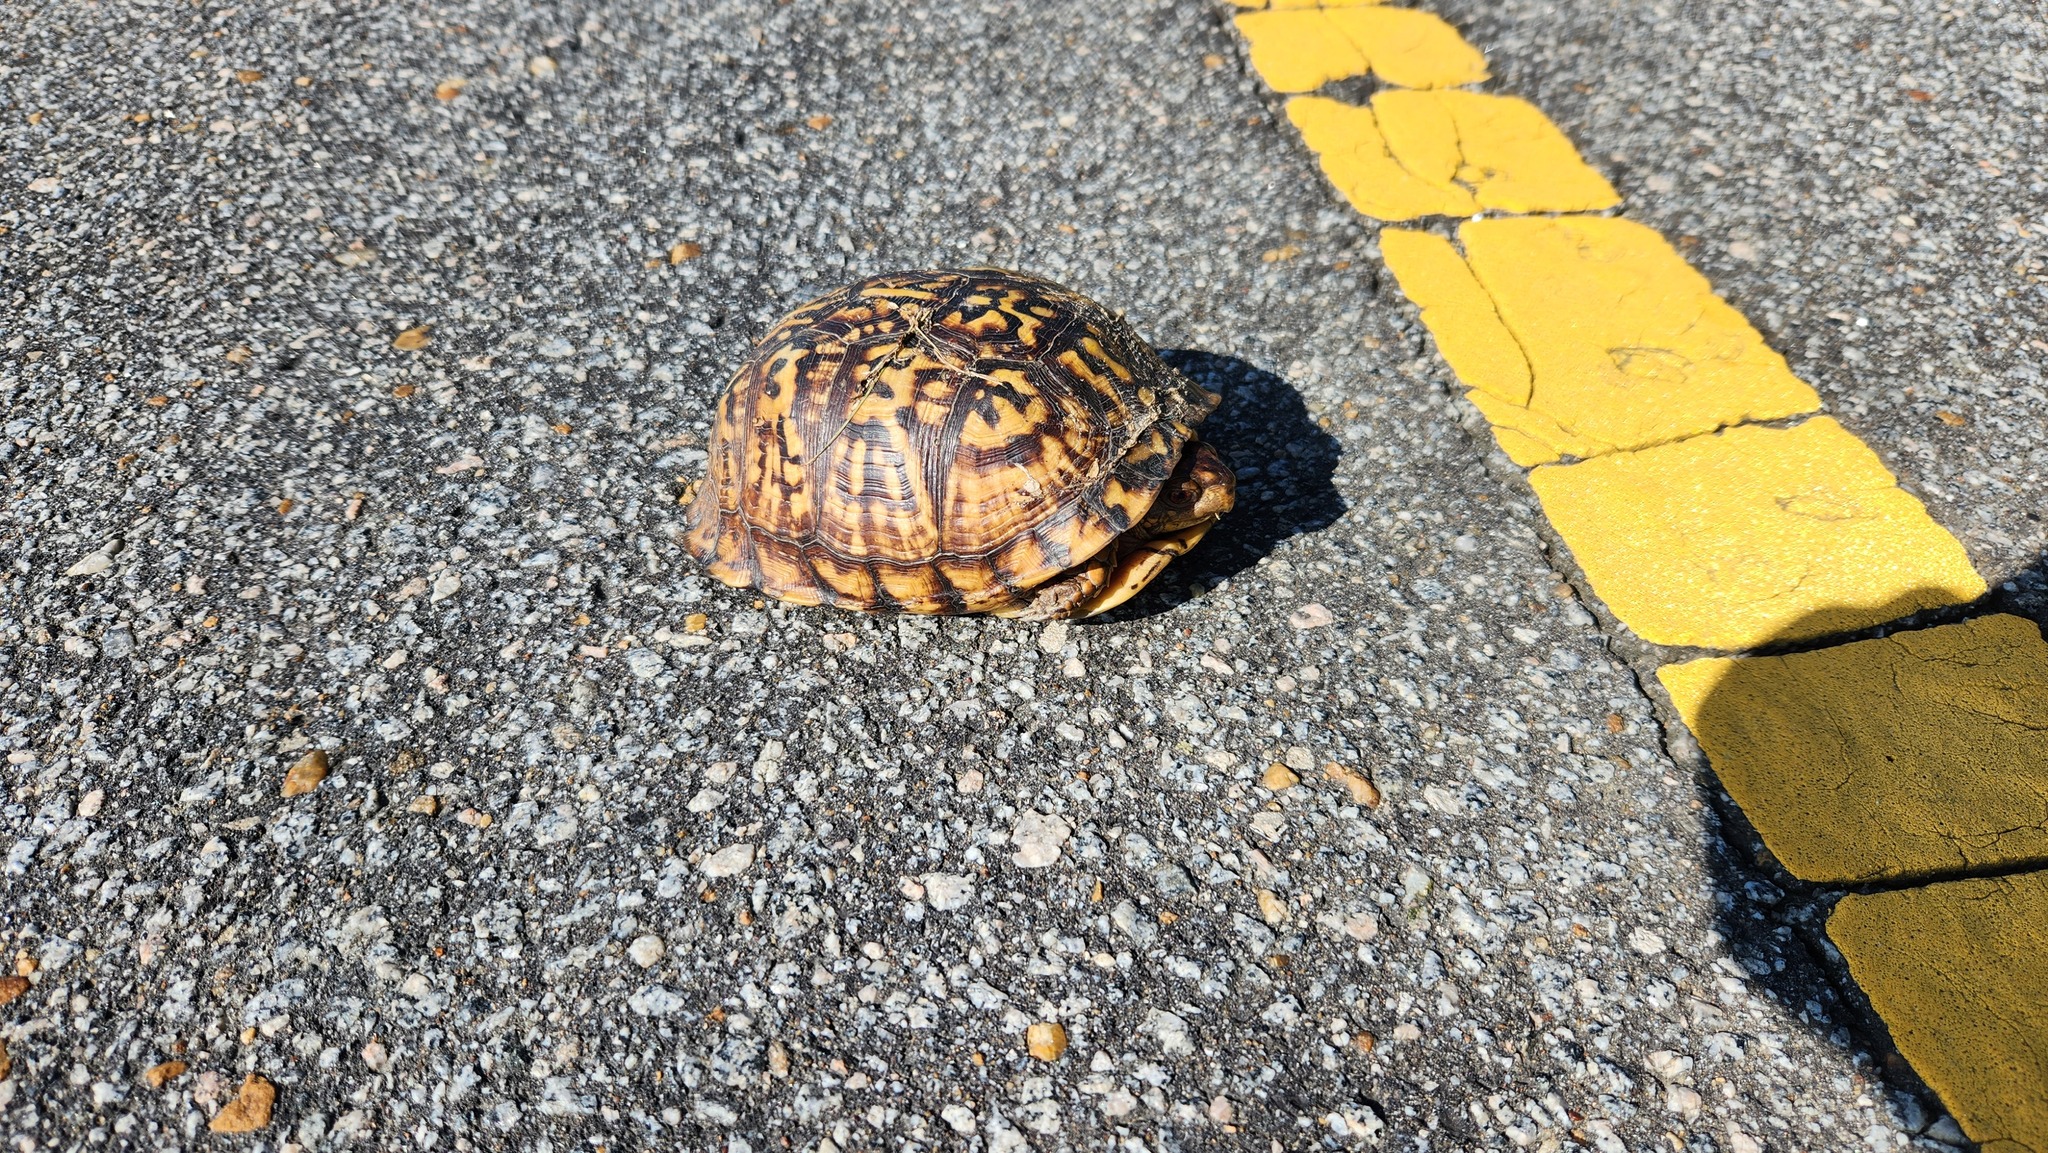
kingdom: Animalia
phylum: Chordata
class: Testudines
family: Emydidae
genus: Terrapene
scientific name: Terrapene carolina
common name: Common box turtle
